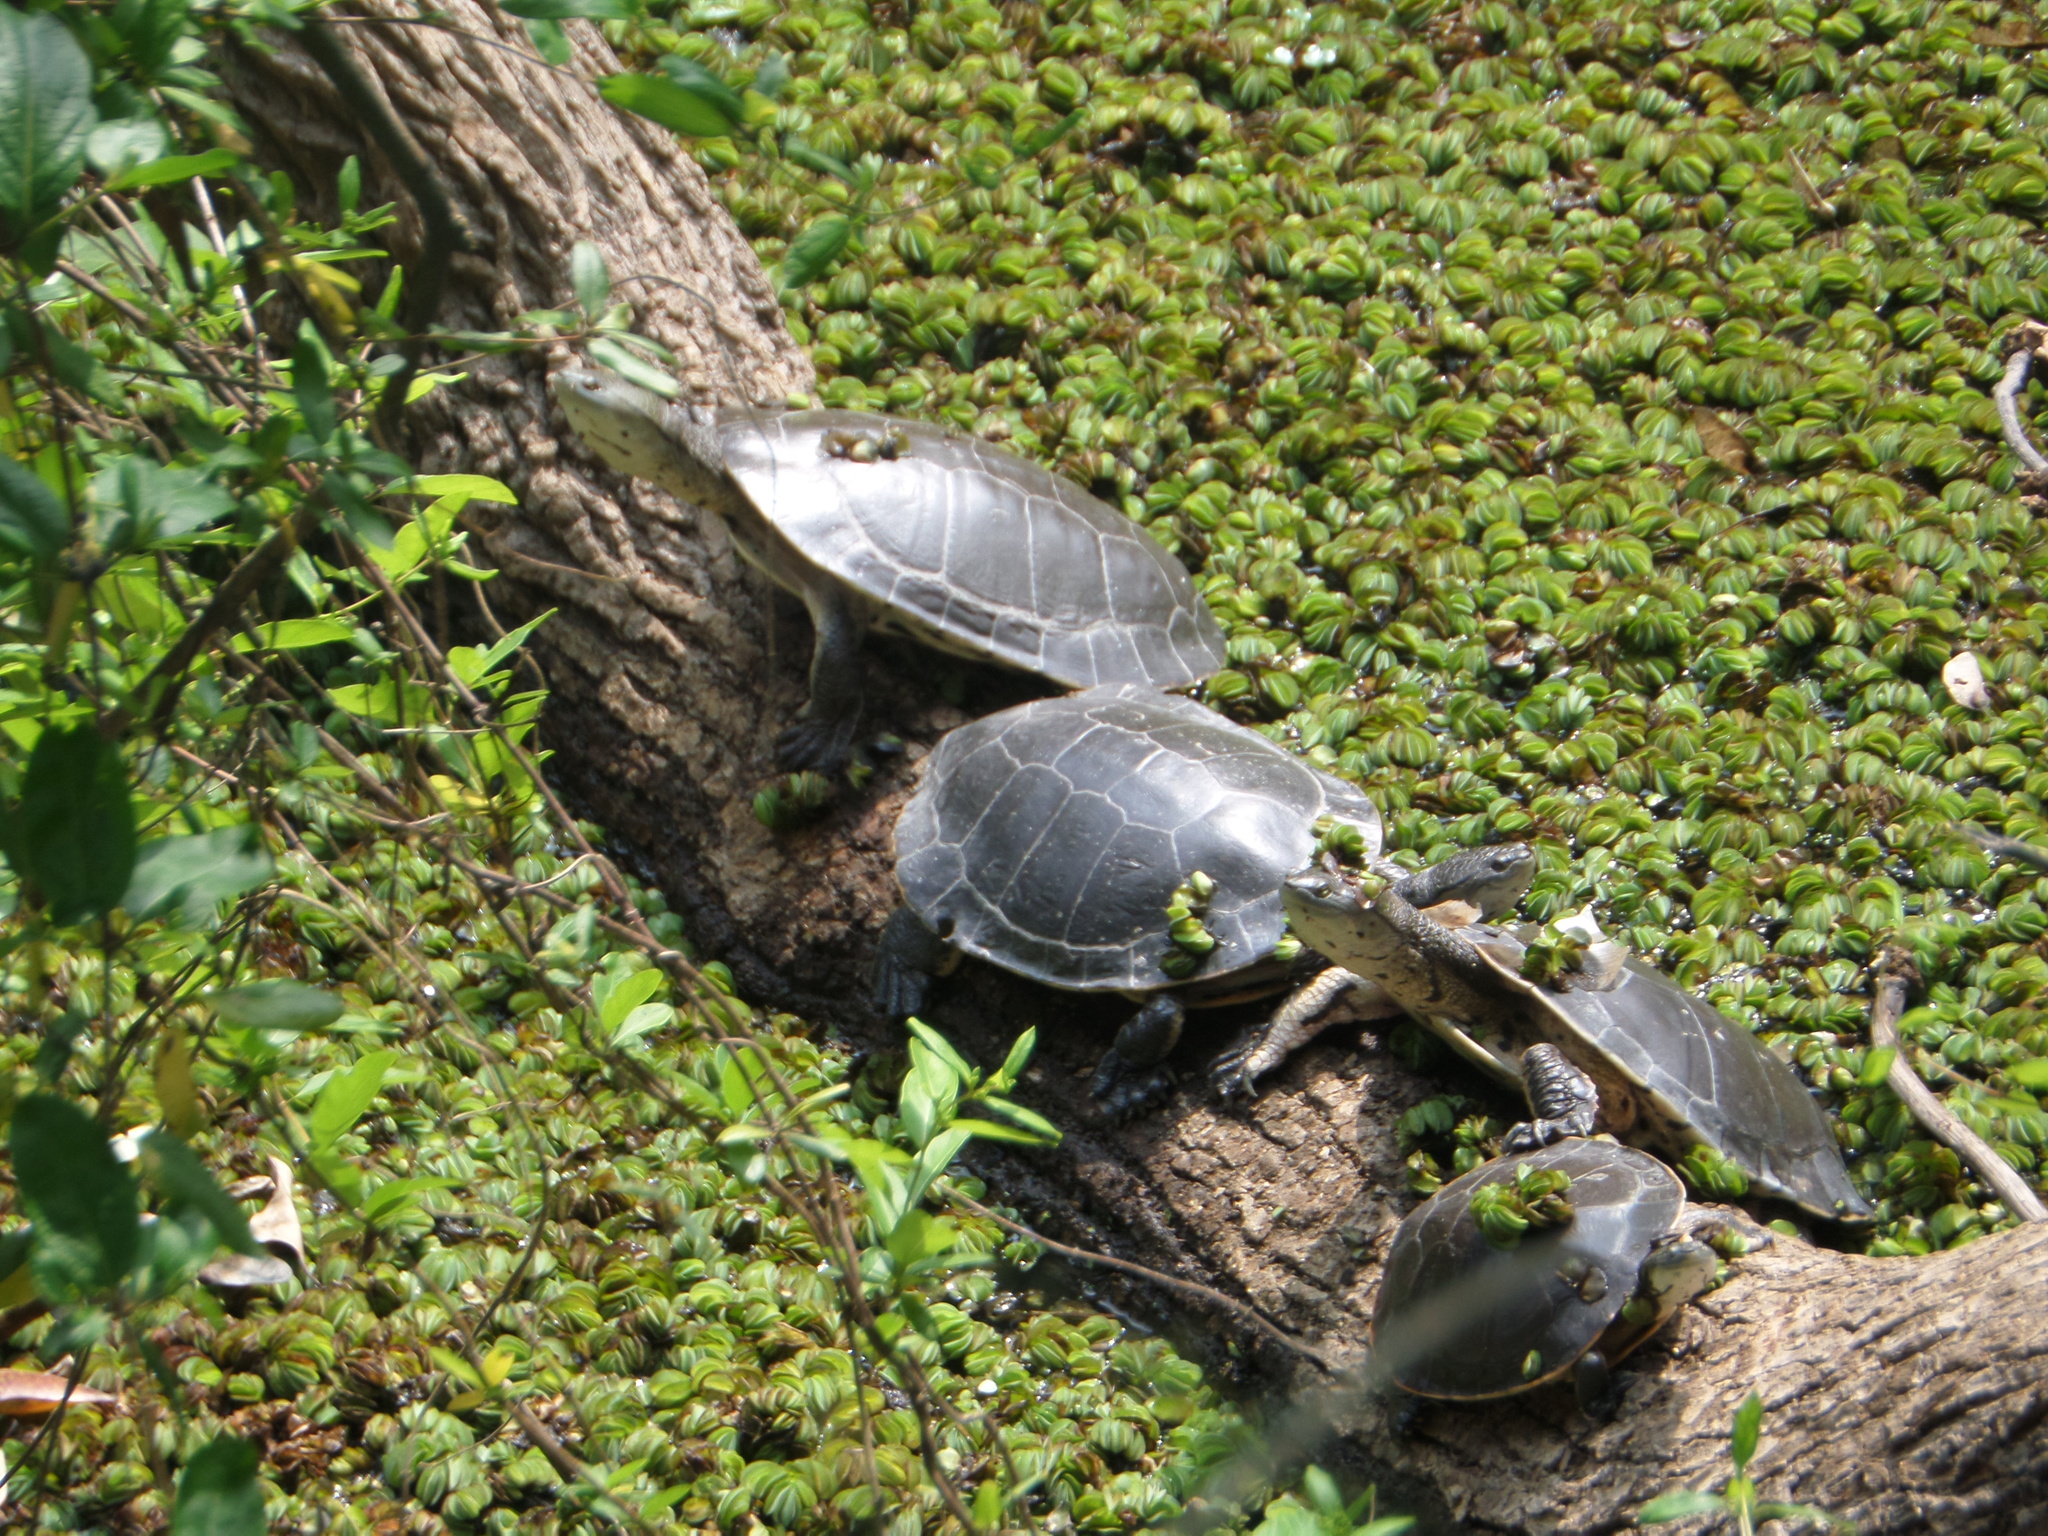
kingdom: Animalia
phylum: Chordata
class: Testudines
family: Chelidae
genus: Phrynops
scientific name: Phrynops hilarii
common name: Side-necked turtle of saint hillaire
